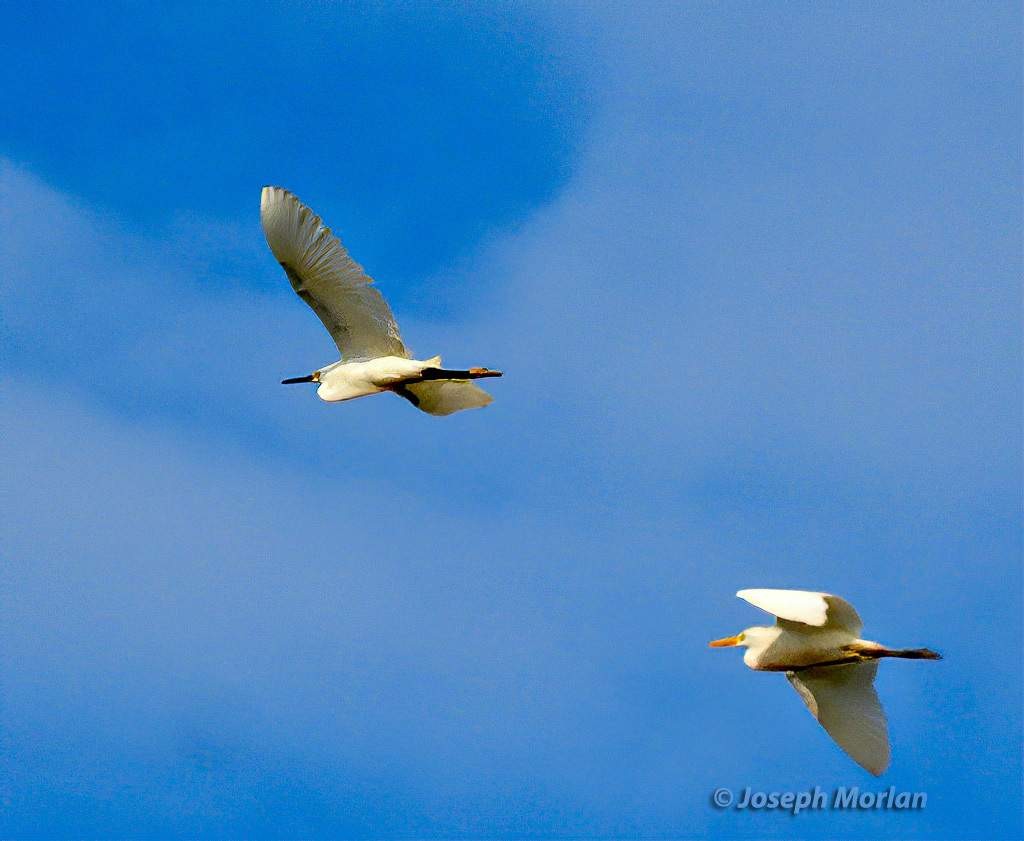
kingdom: Animalia
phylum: Chordata
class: Aves
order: Pelecaniformes
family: Ardeidae
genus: Egretta
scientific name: Egretta thula
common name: Snowy egret
